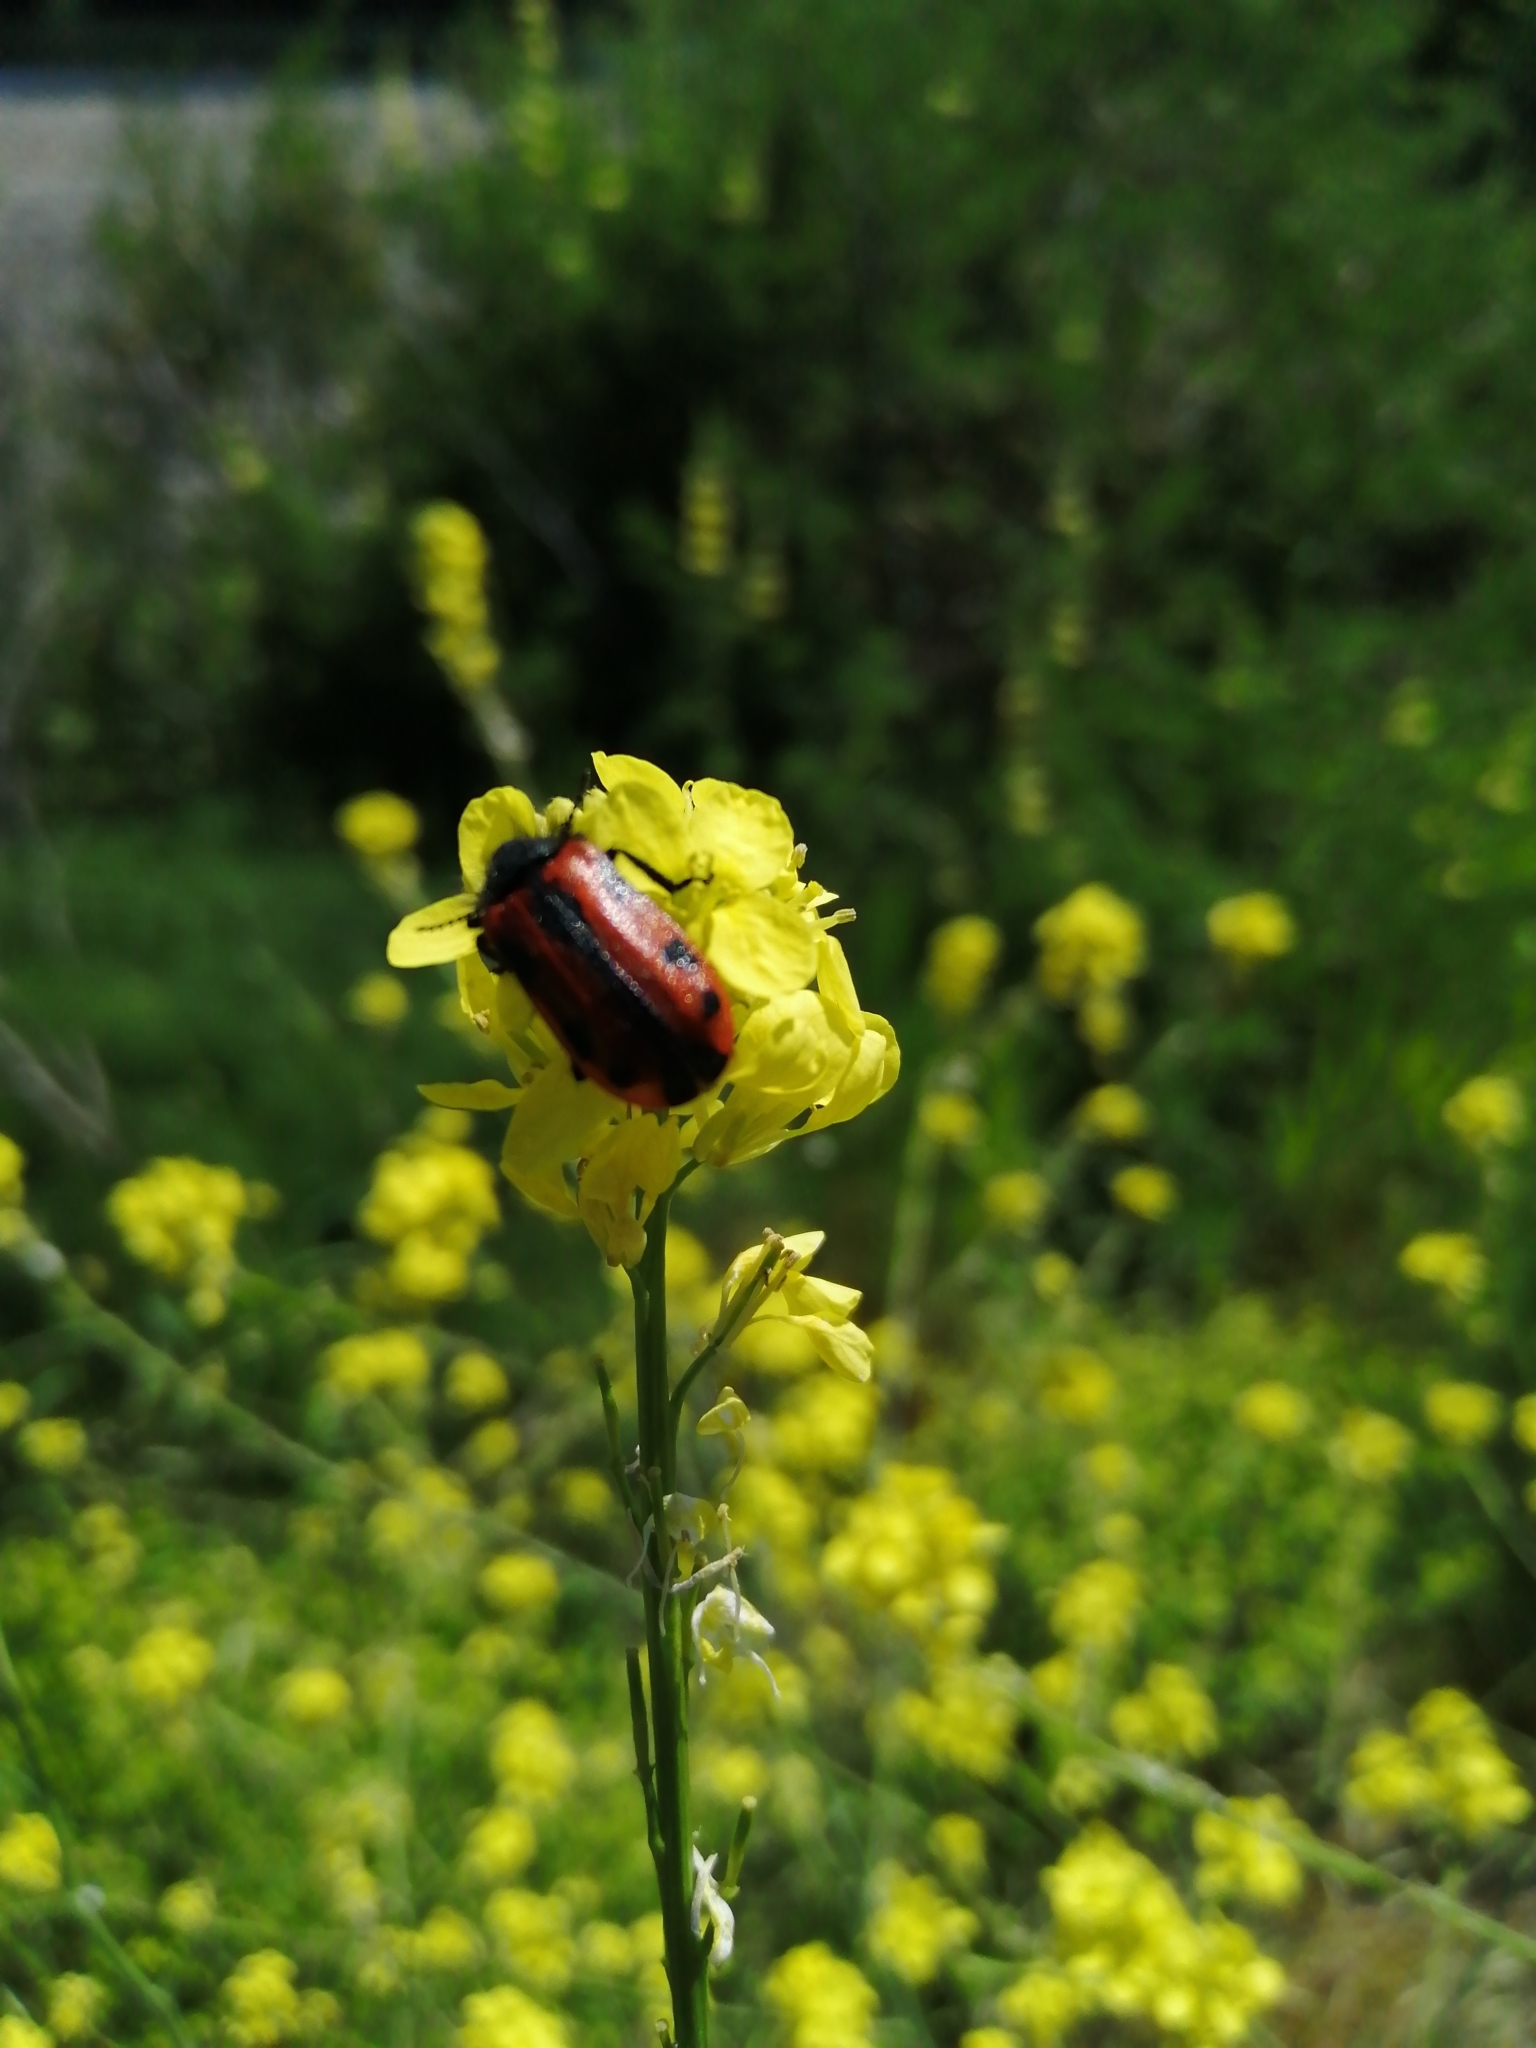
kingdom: Animalia
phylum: Arthropoda
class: Insecta
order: Coleoptera
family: Melyridae
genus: Astylus
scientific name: Astylus
